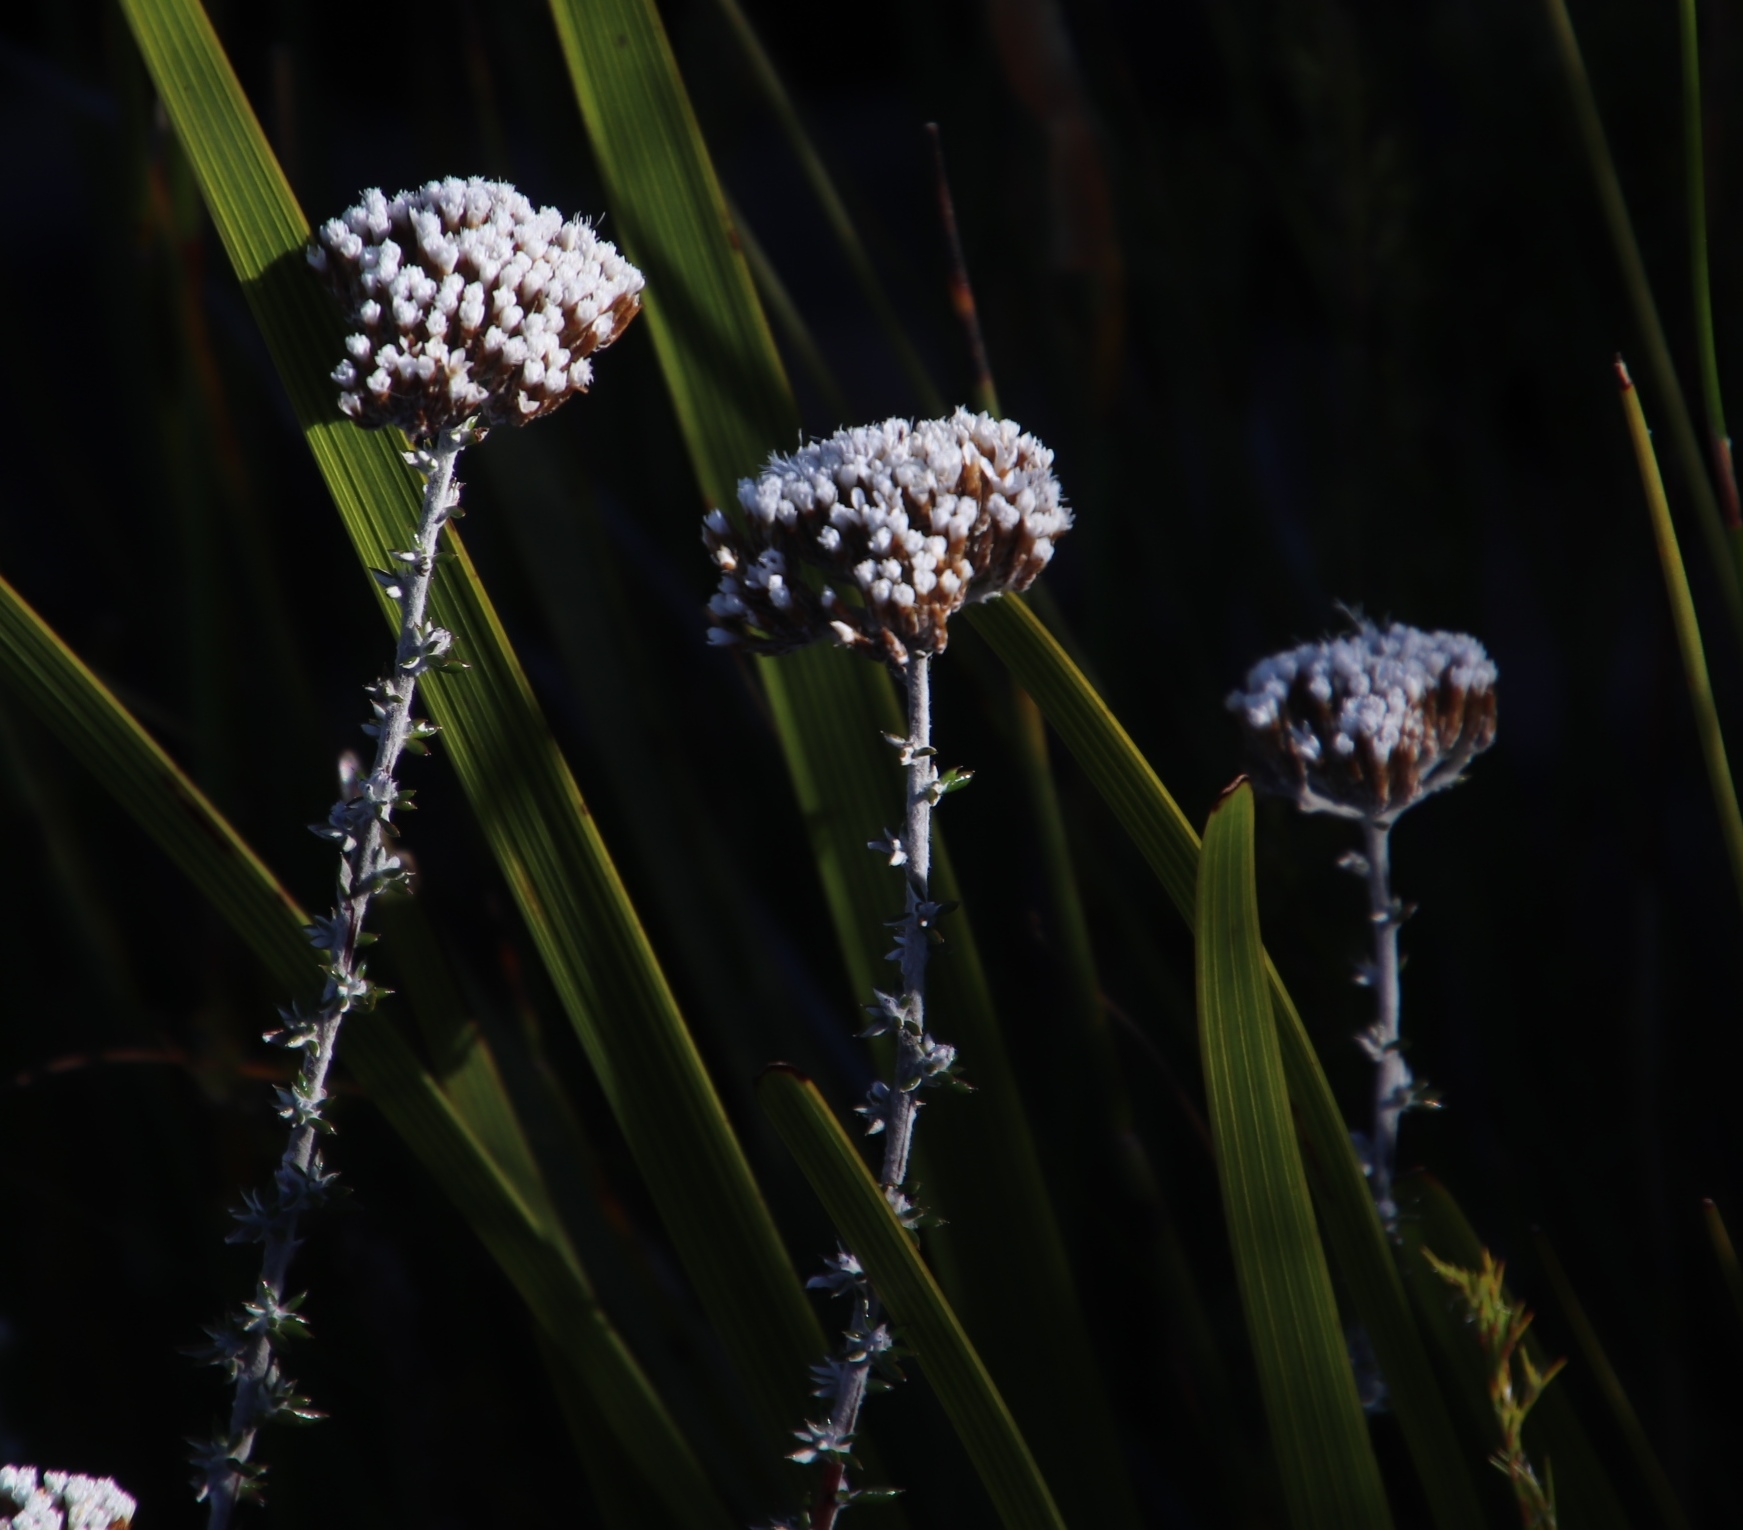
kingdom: Plantae
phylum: Tracheophyta
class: Magnoliopsida
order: Asterales
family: Asteraceae
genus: Metalasia
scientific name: Metalasia densa
